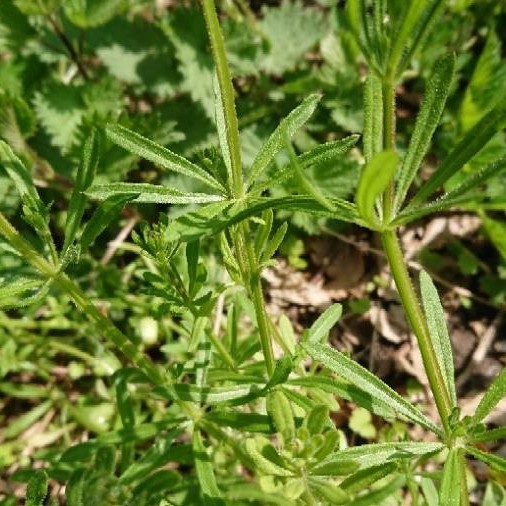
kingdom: Plantae
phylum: Tracheophyta
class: Magnoliopsida
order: Gentianales
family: Rubiaceae
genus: Galium
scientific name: Galium aparine
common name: Cleavers
